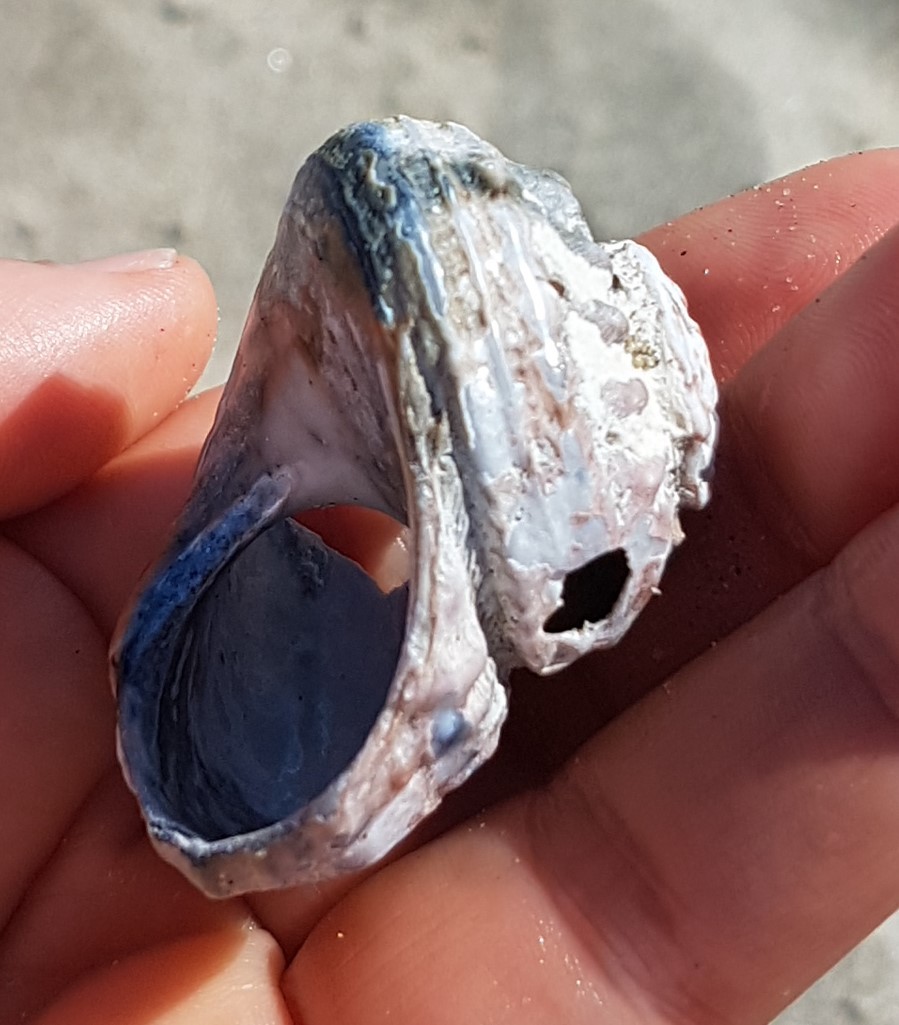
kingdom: Animalia
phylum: Mollusca
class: Gastropoda
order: Trochida
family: Turbinidae
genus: Bolma
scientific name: Bolma rugosa
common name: Rough star shell
